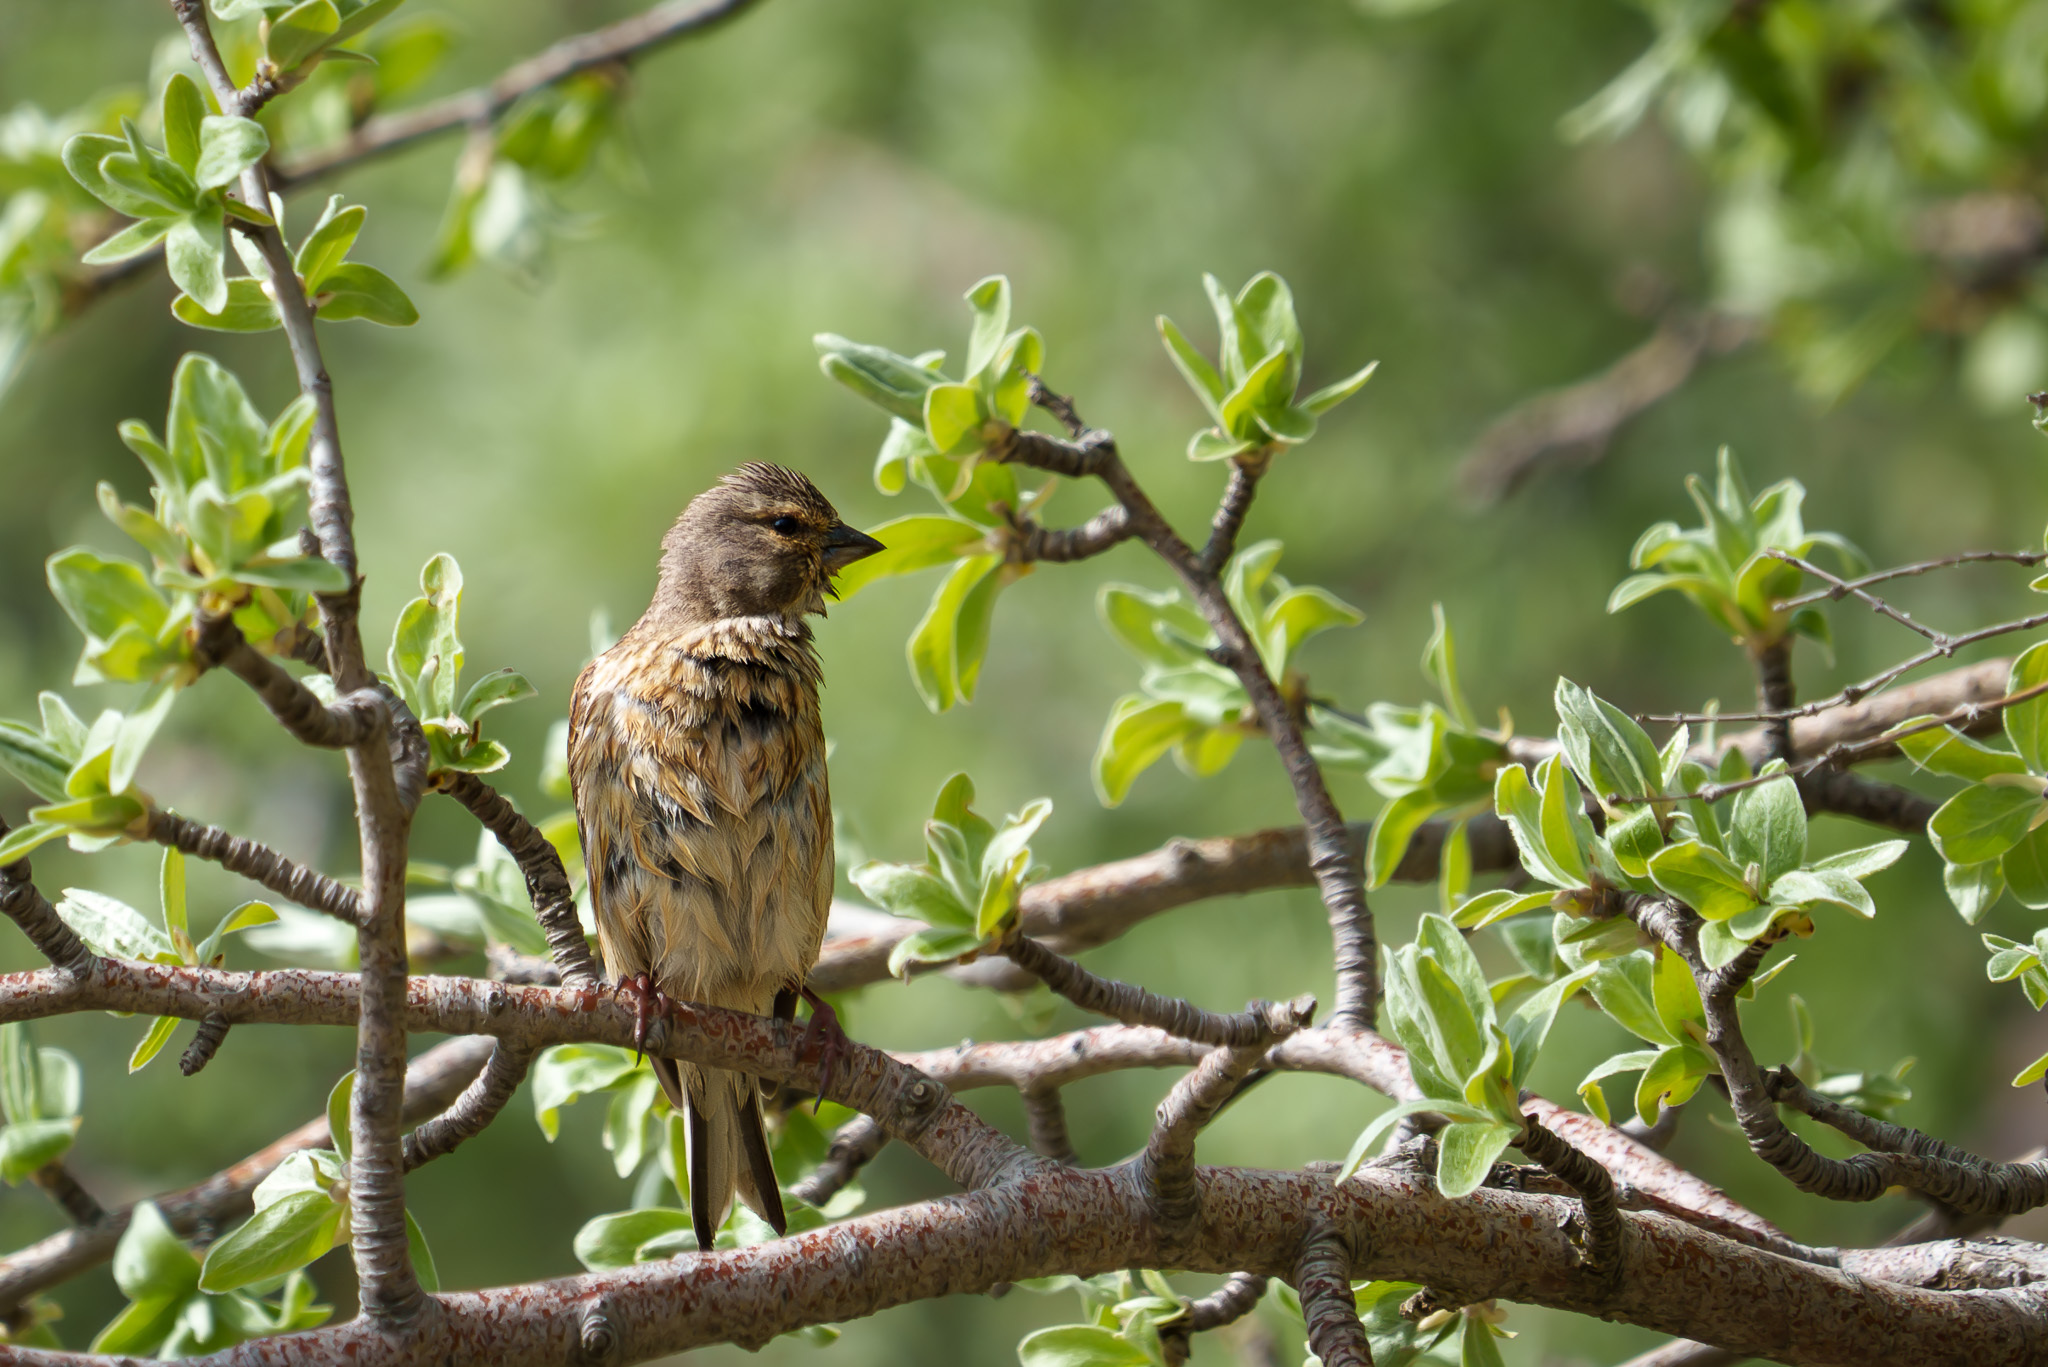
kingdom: Animalia
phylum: Chordata
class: Aves
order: Passeriformes
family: Fringillidae
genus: Linaria
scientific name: Linaria cannabina
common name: Common linnet
